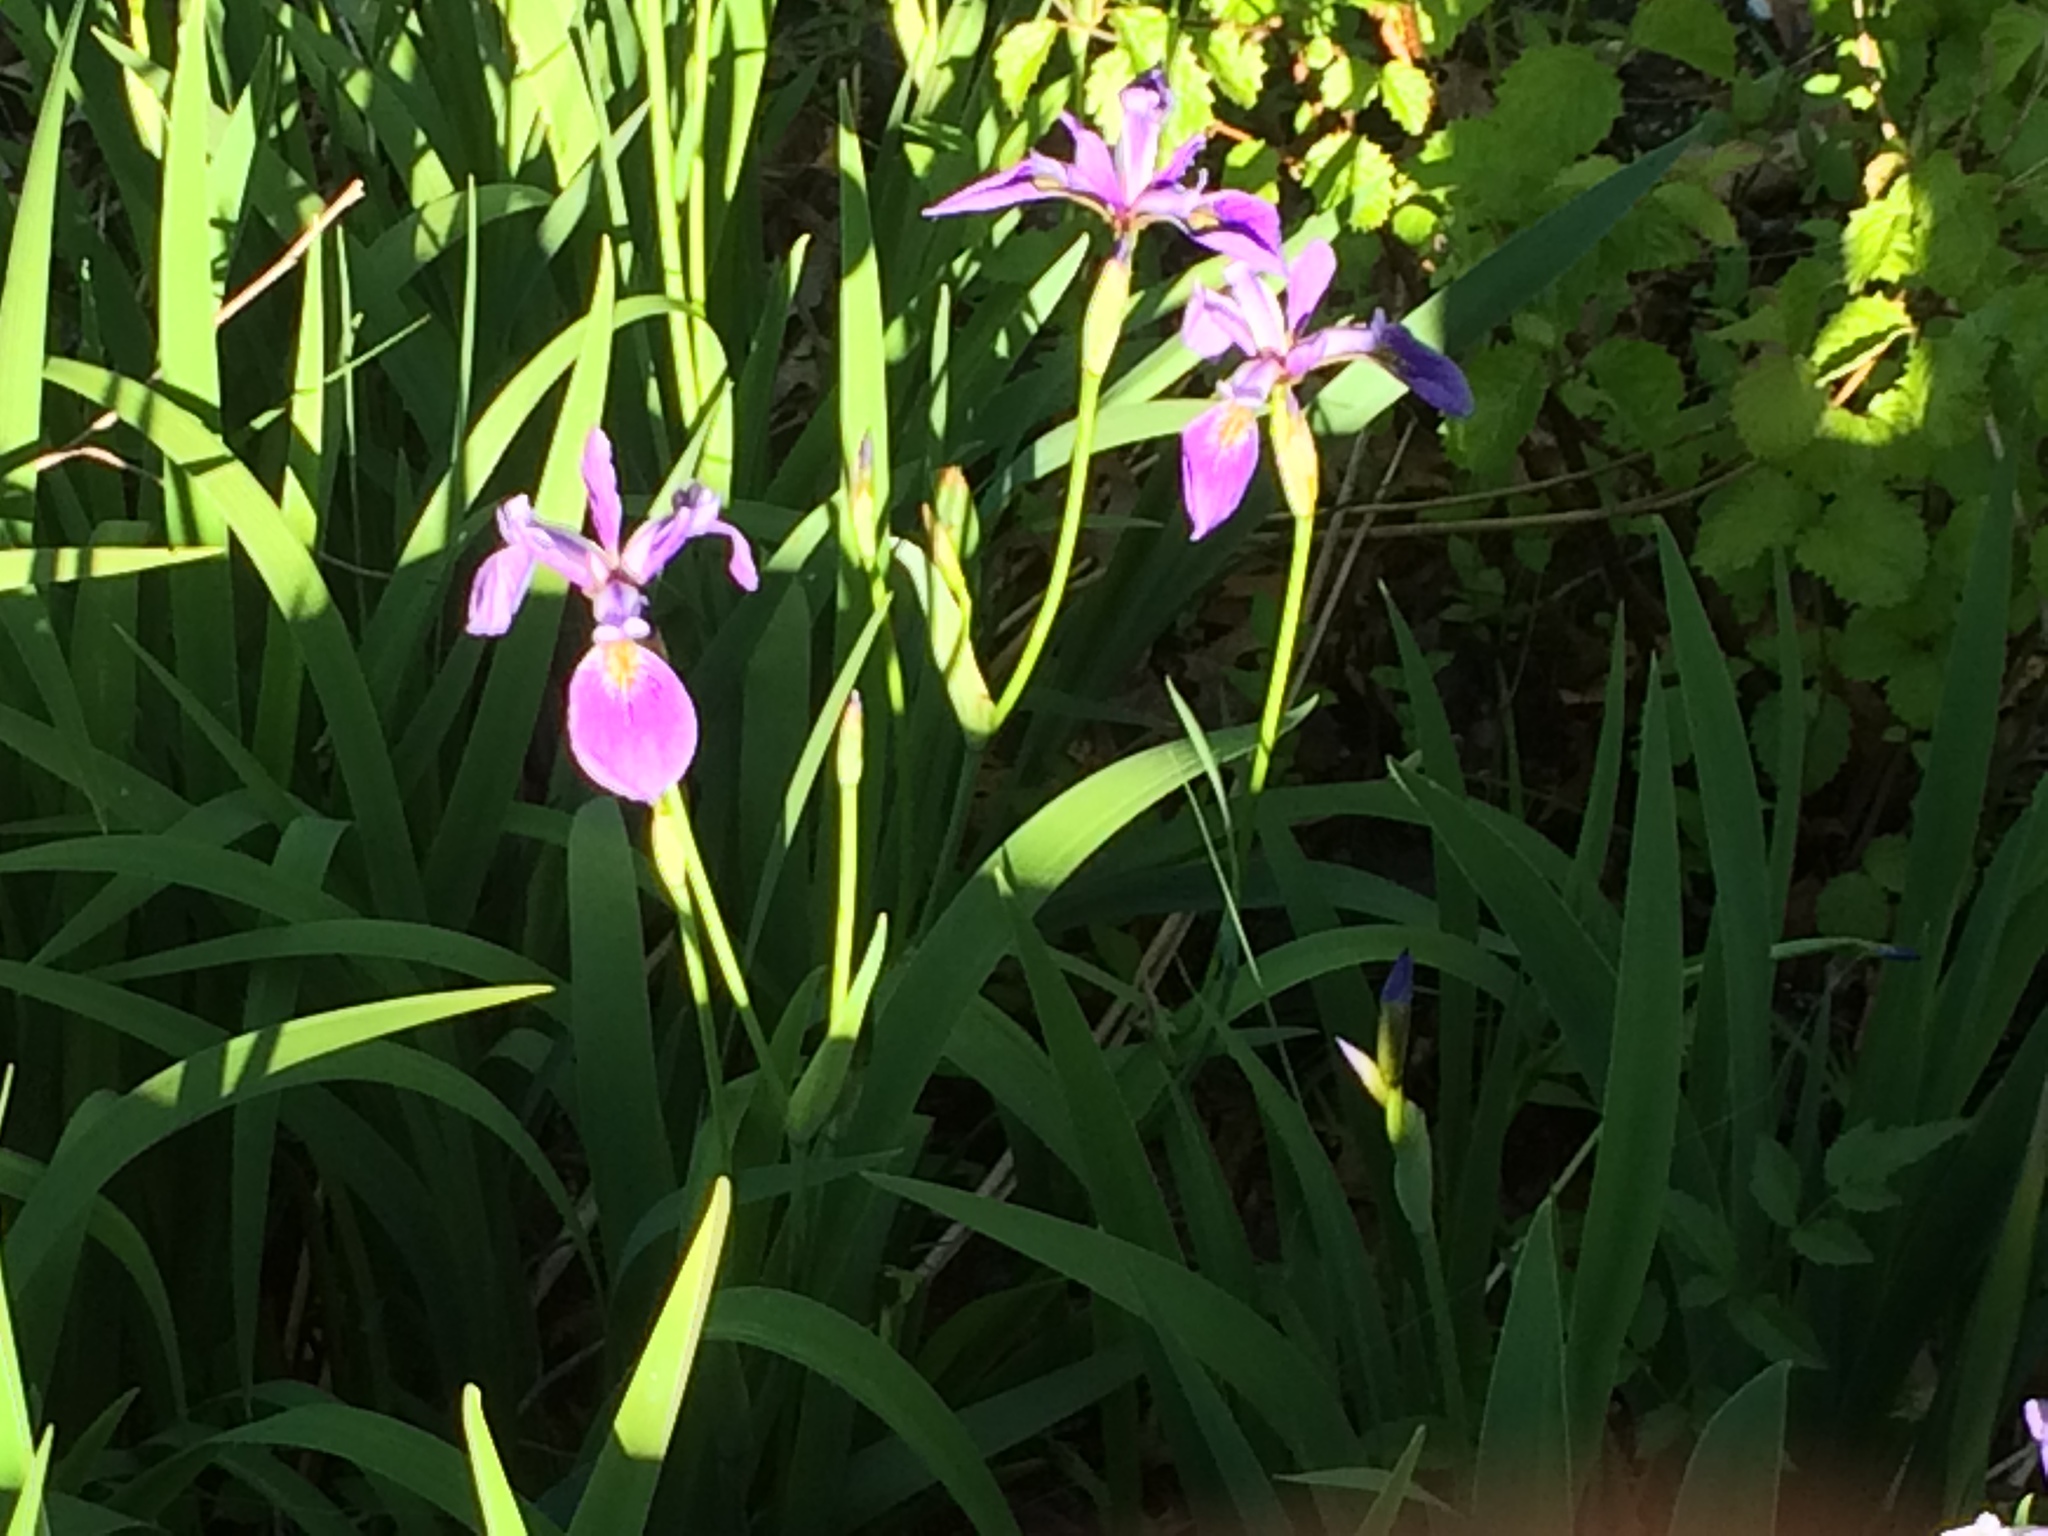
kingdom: Plantae
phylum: Tracheophyta
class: Liliopsida
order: Asparagales
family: Iridaceae
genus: Iris
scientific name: Iris versicolor
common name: Purple iris
